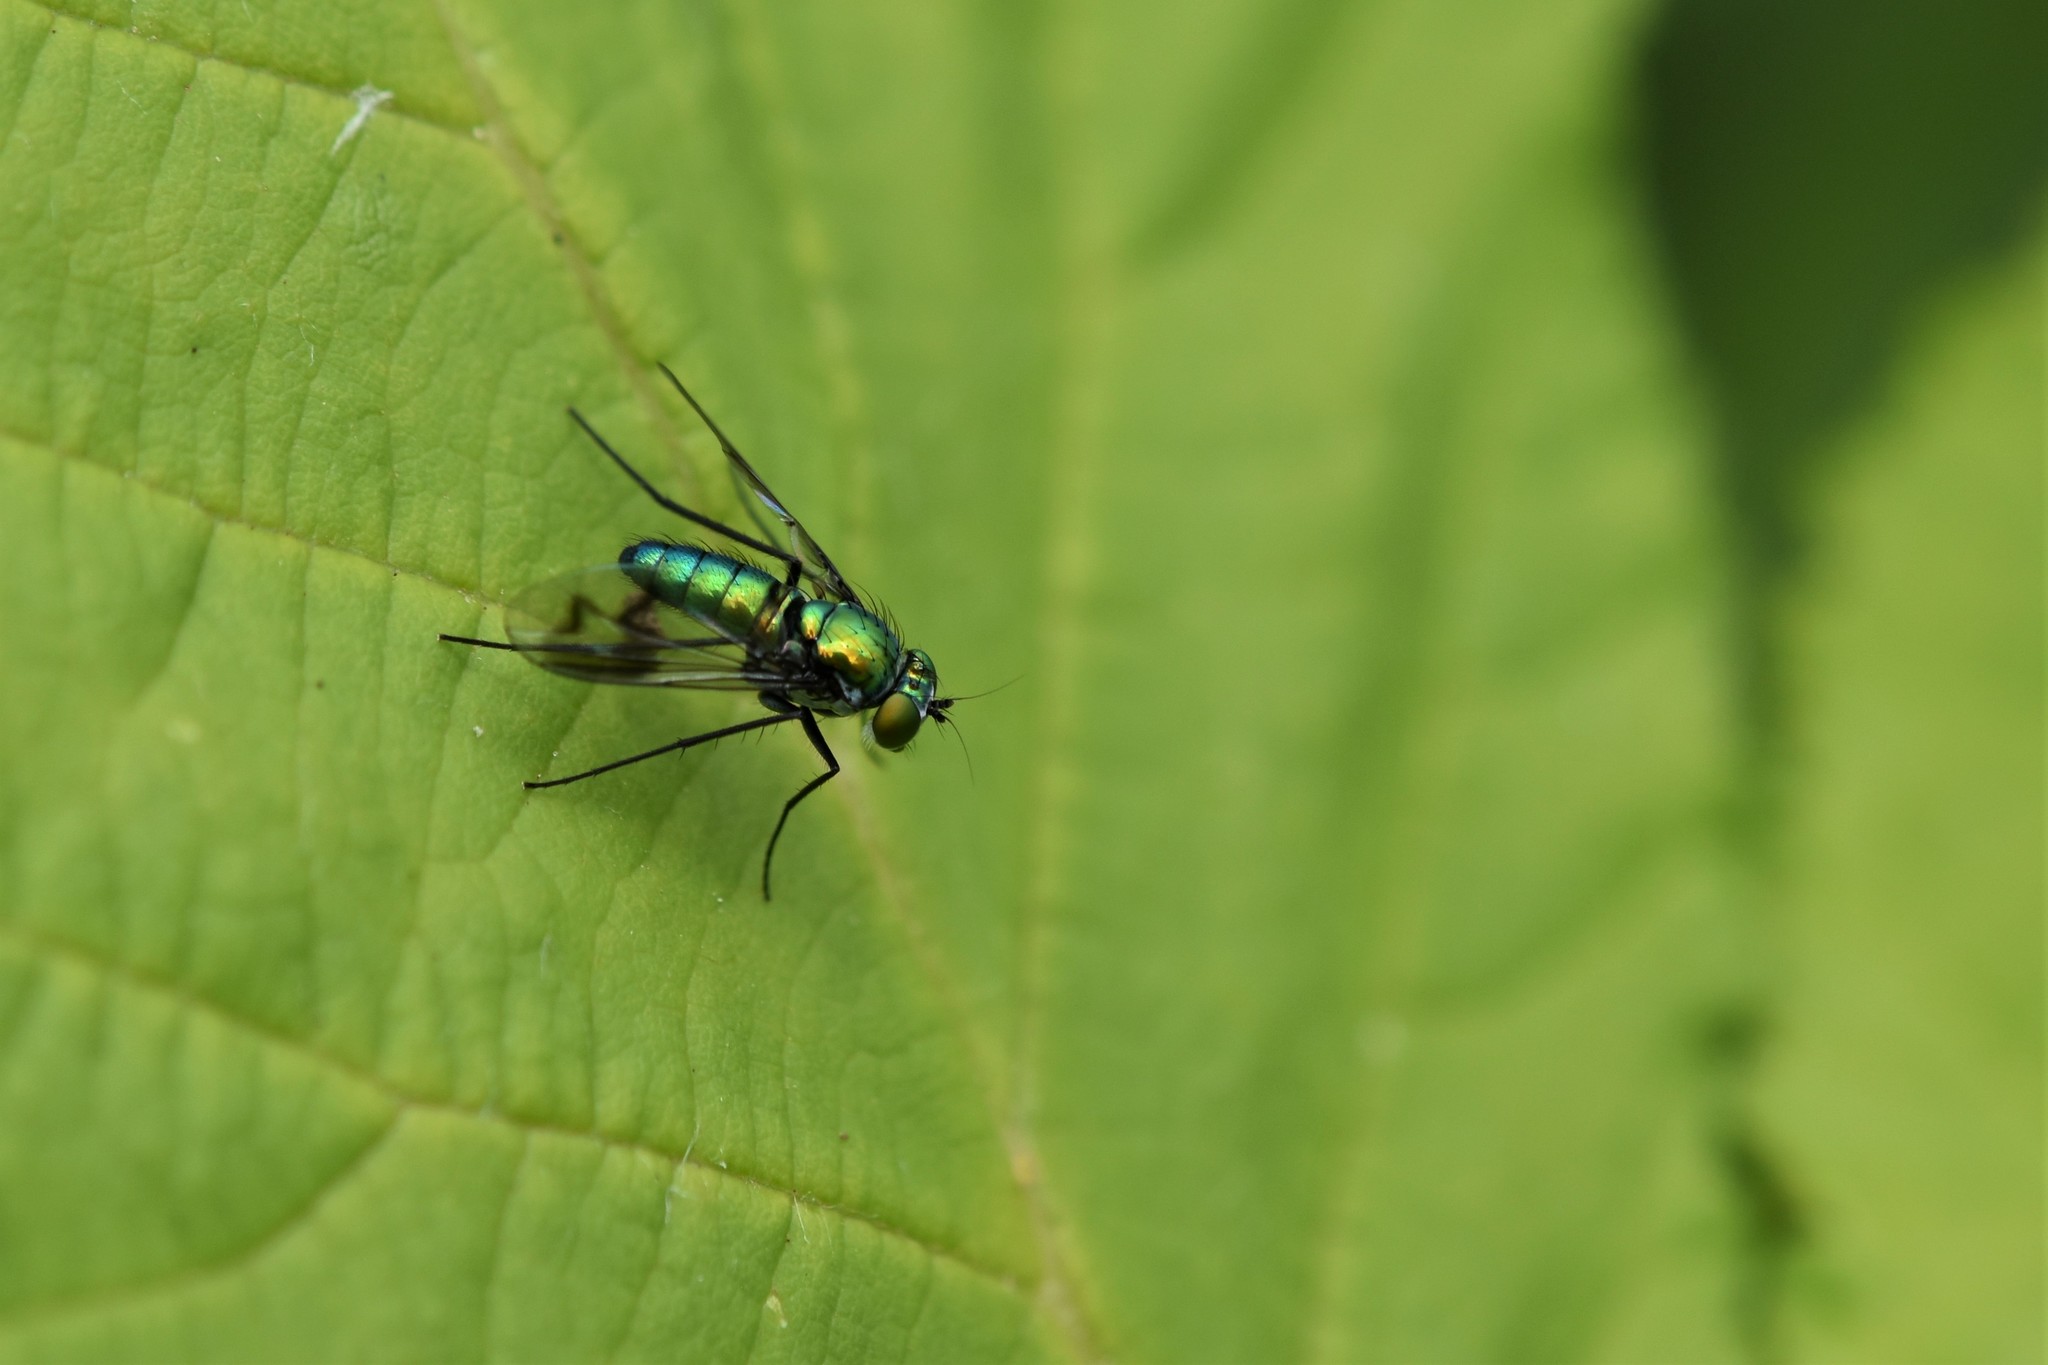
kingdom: Animalia
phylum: Arthropoda
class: Insecta
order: Diptera
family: Dolichopodidae
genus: Condylostylus
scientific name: Condylostylus occidentalis
